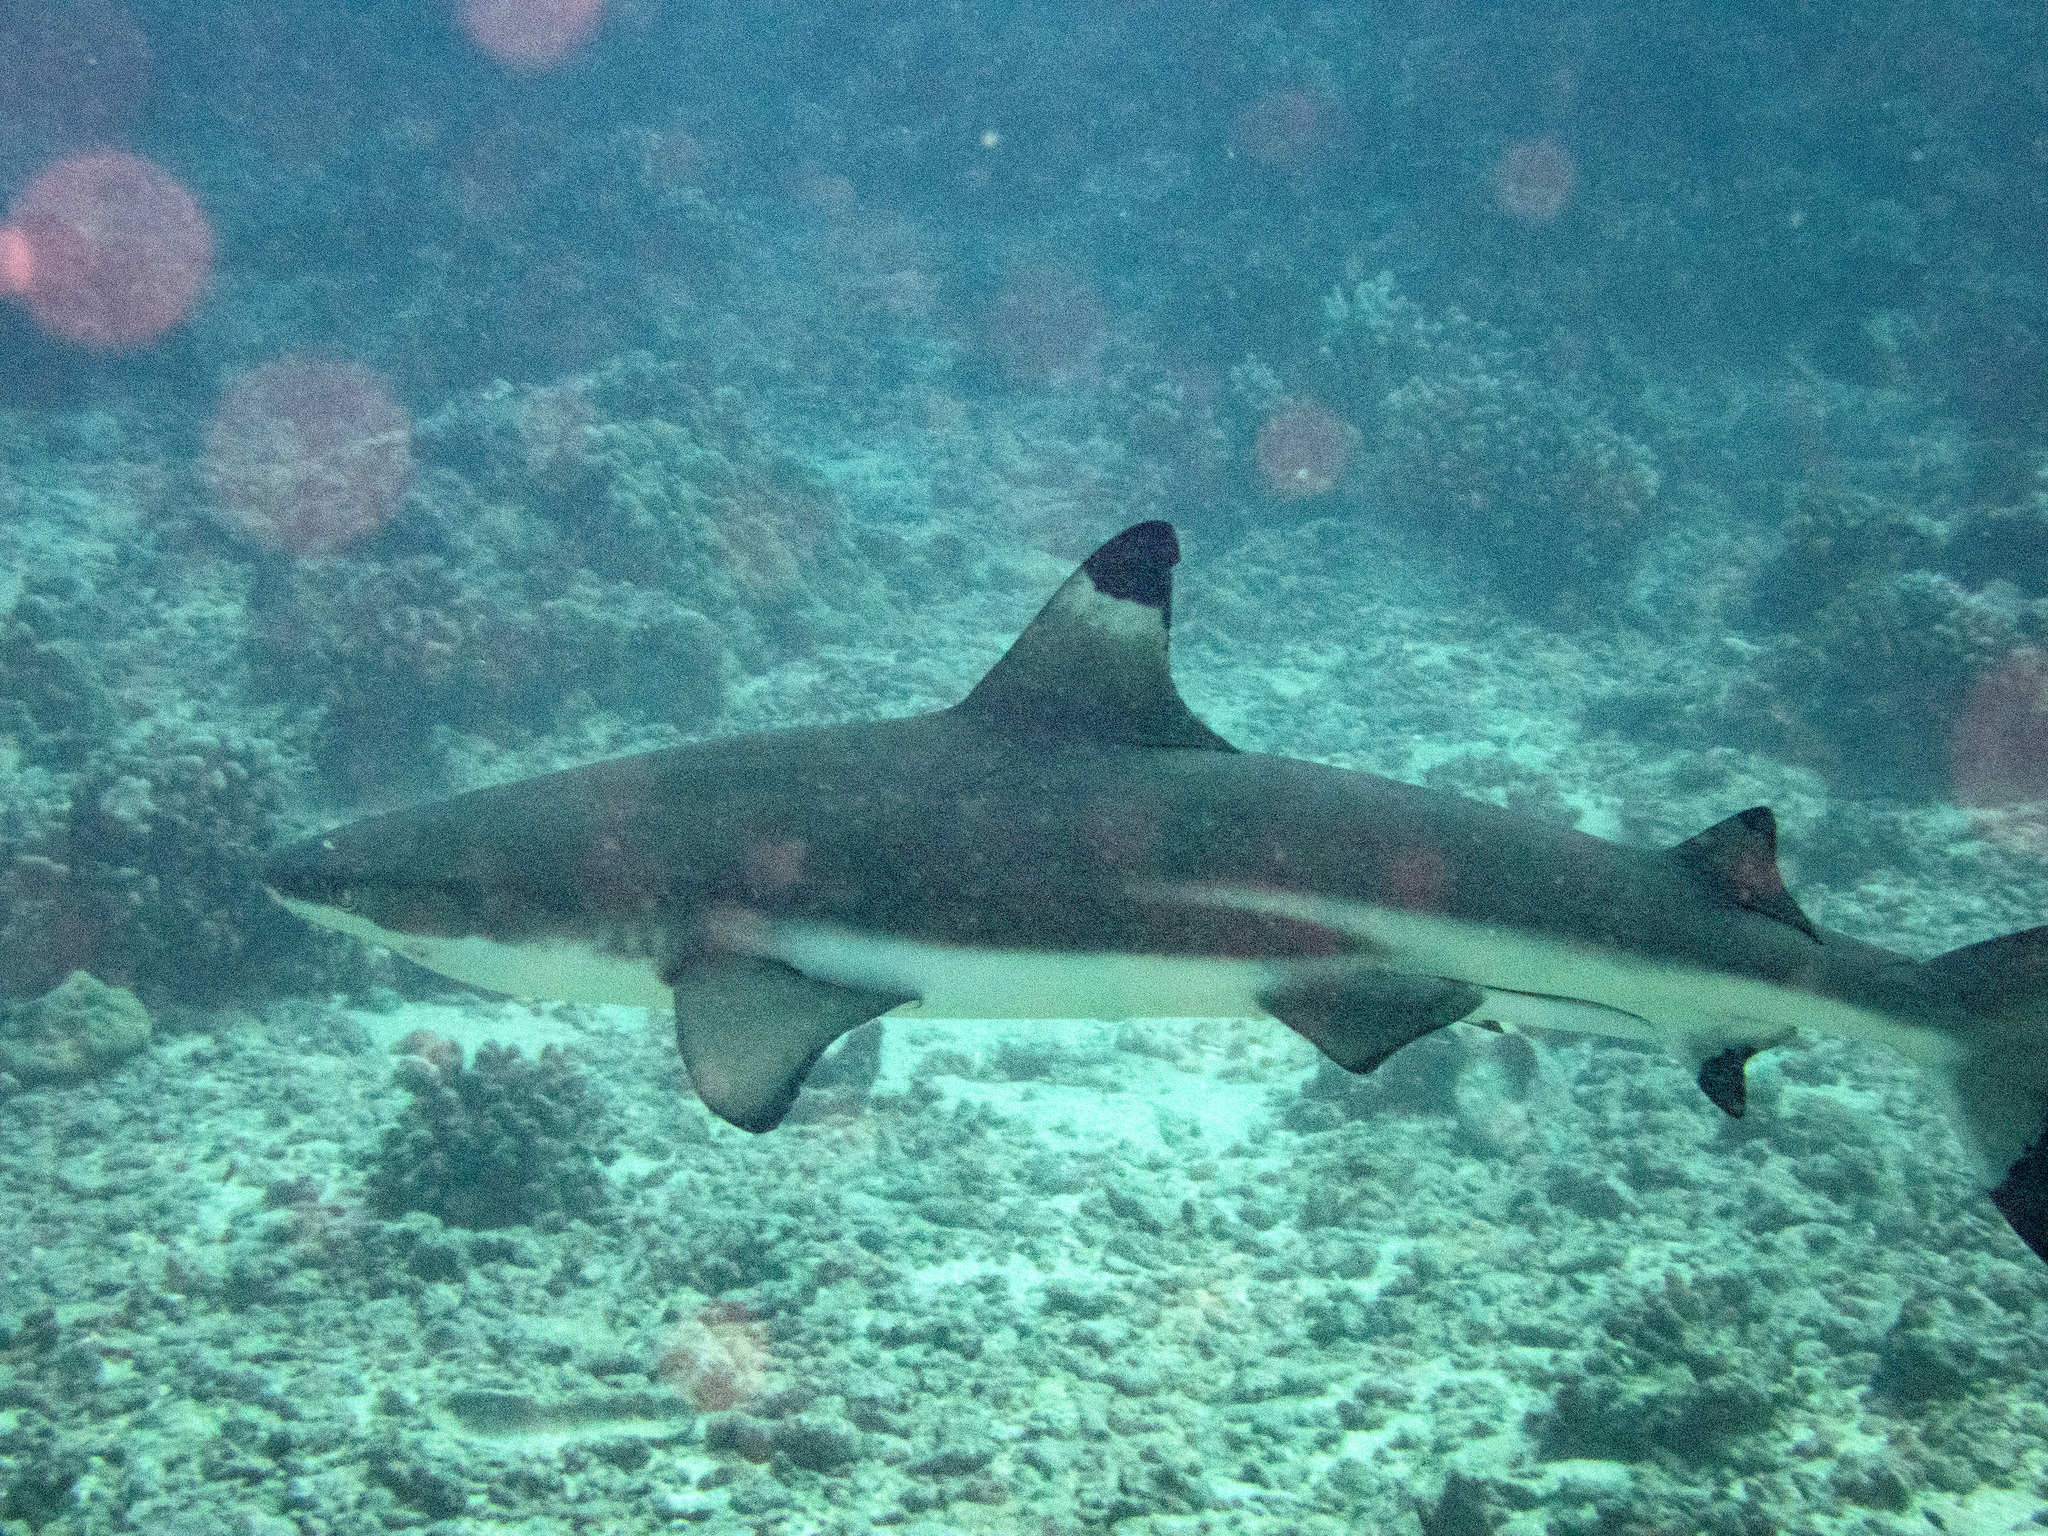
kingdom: Animalia
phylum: Chordata
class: Elasmobranchii
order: Carcharhiniformes
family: Carcharhinidae
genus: Carcharhinus
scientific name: Carcharhinus melanopterus
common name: Blacktip reef shark
